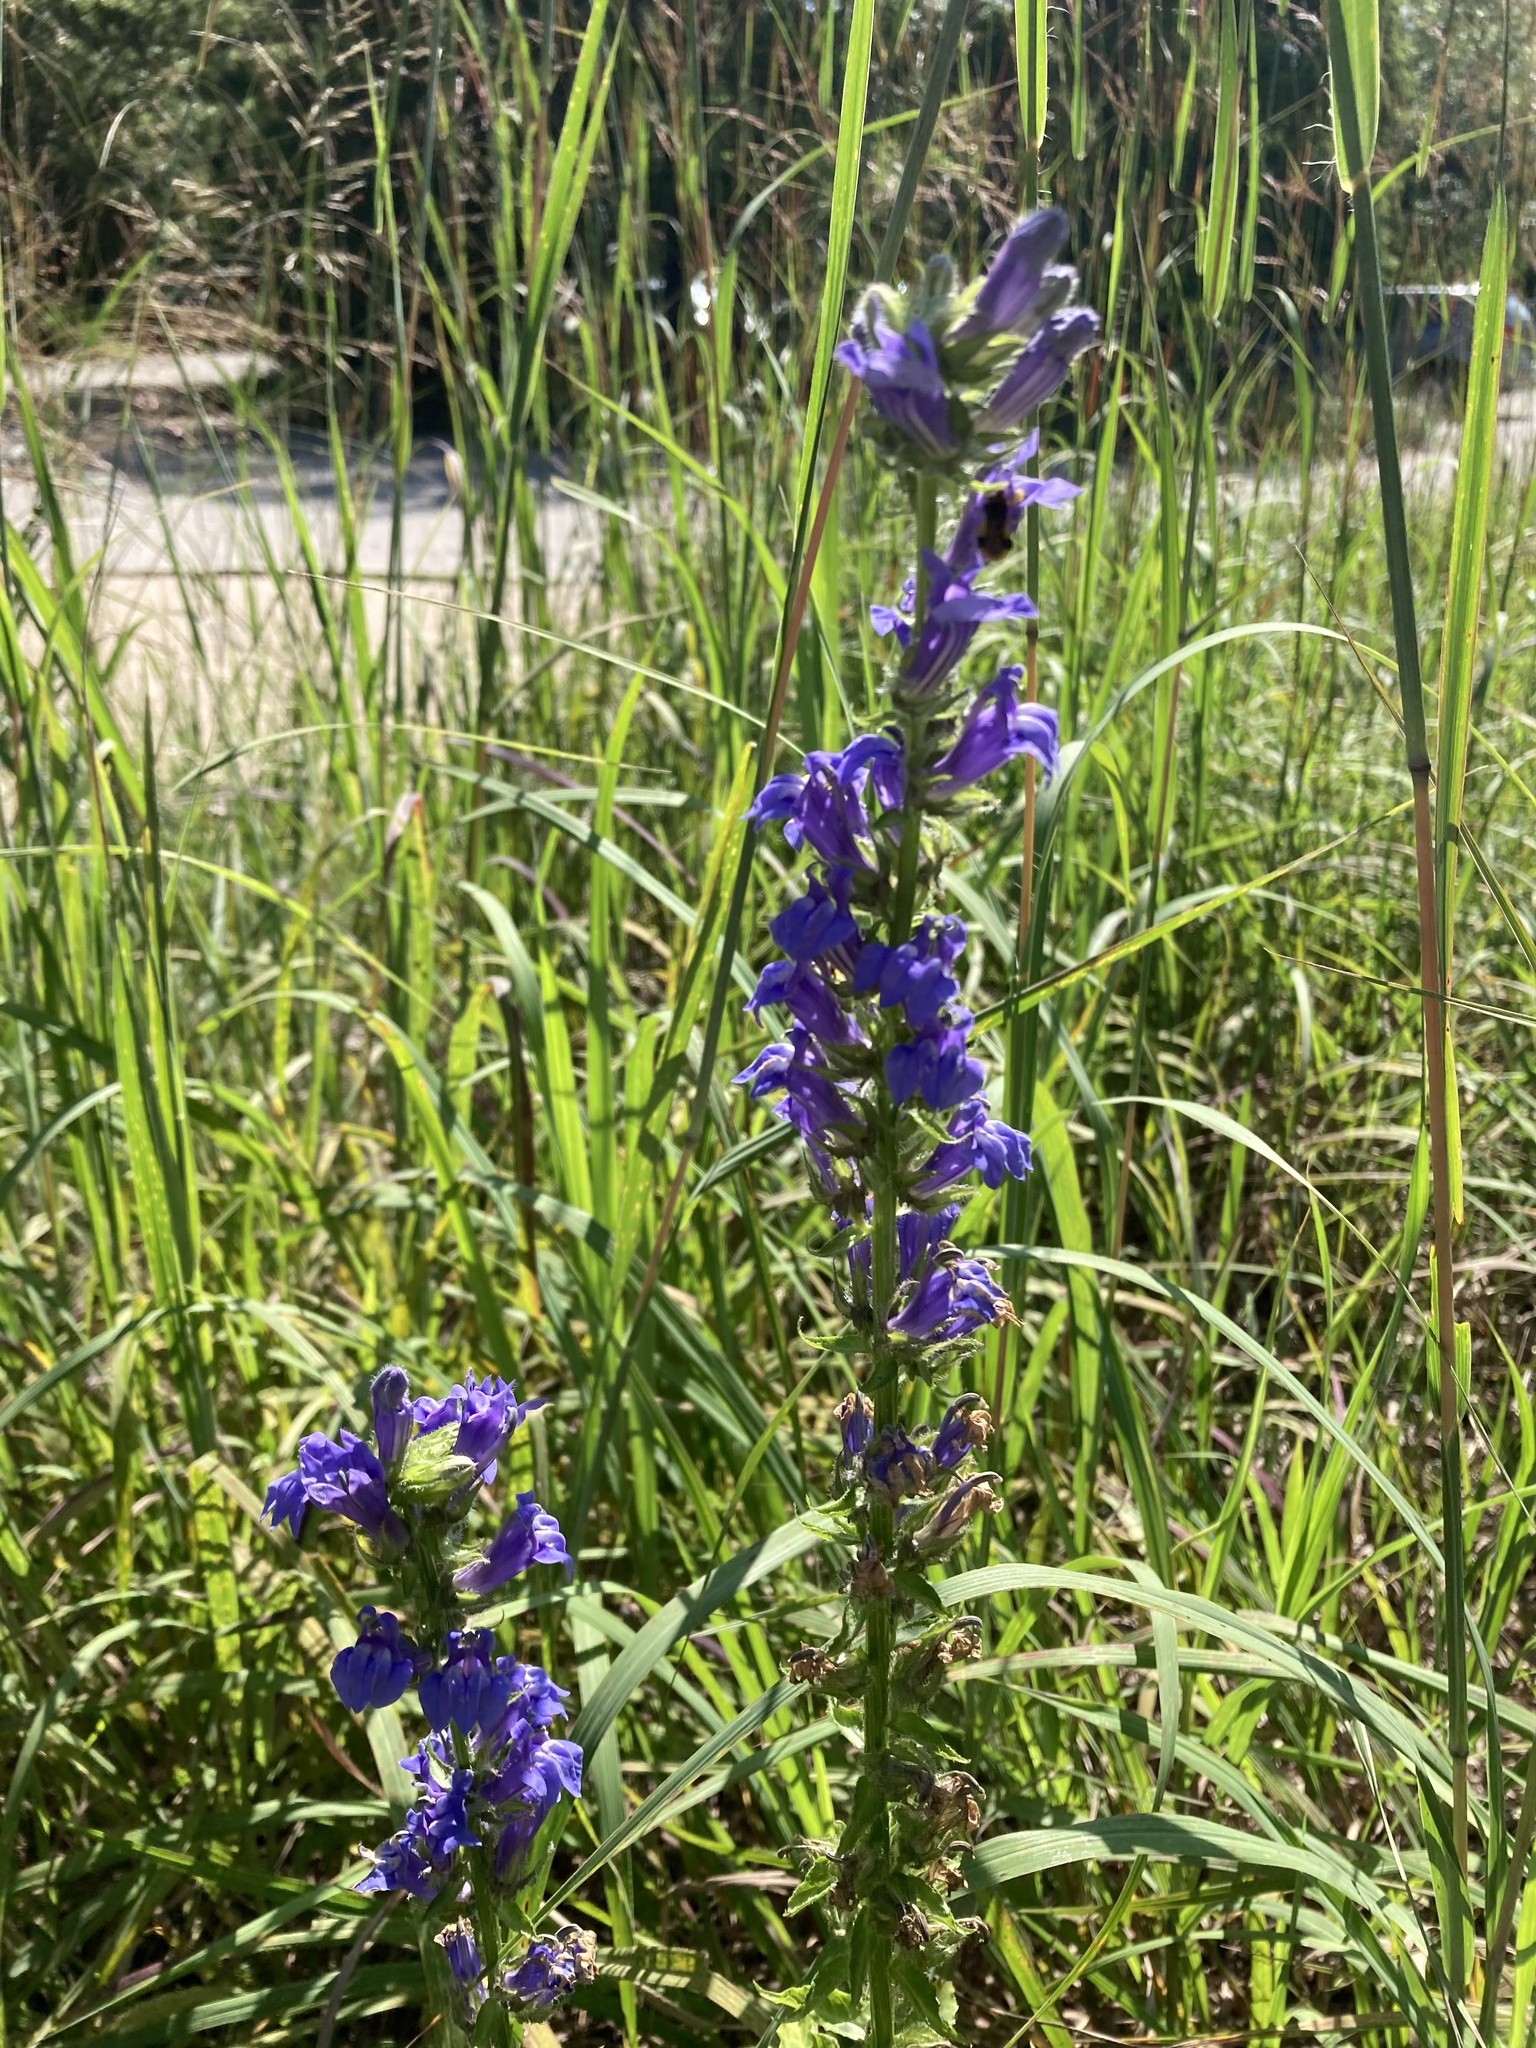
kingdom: Plantae
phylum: Tracheophyta
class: Magnoliopsida
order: Asterales
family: Campanulaceae
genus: Lobelia
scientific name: Lobelia siphilitica
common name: Great lobelia
